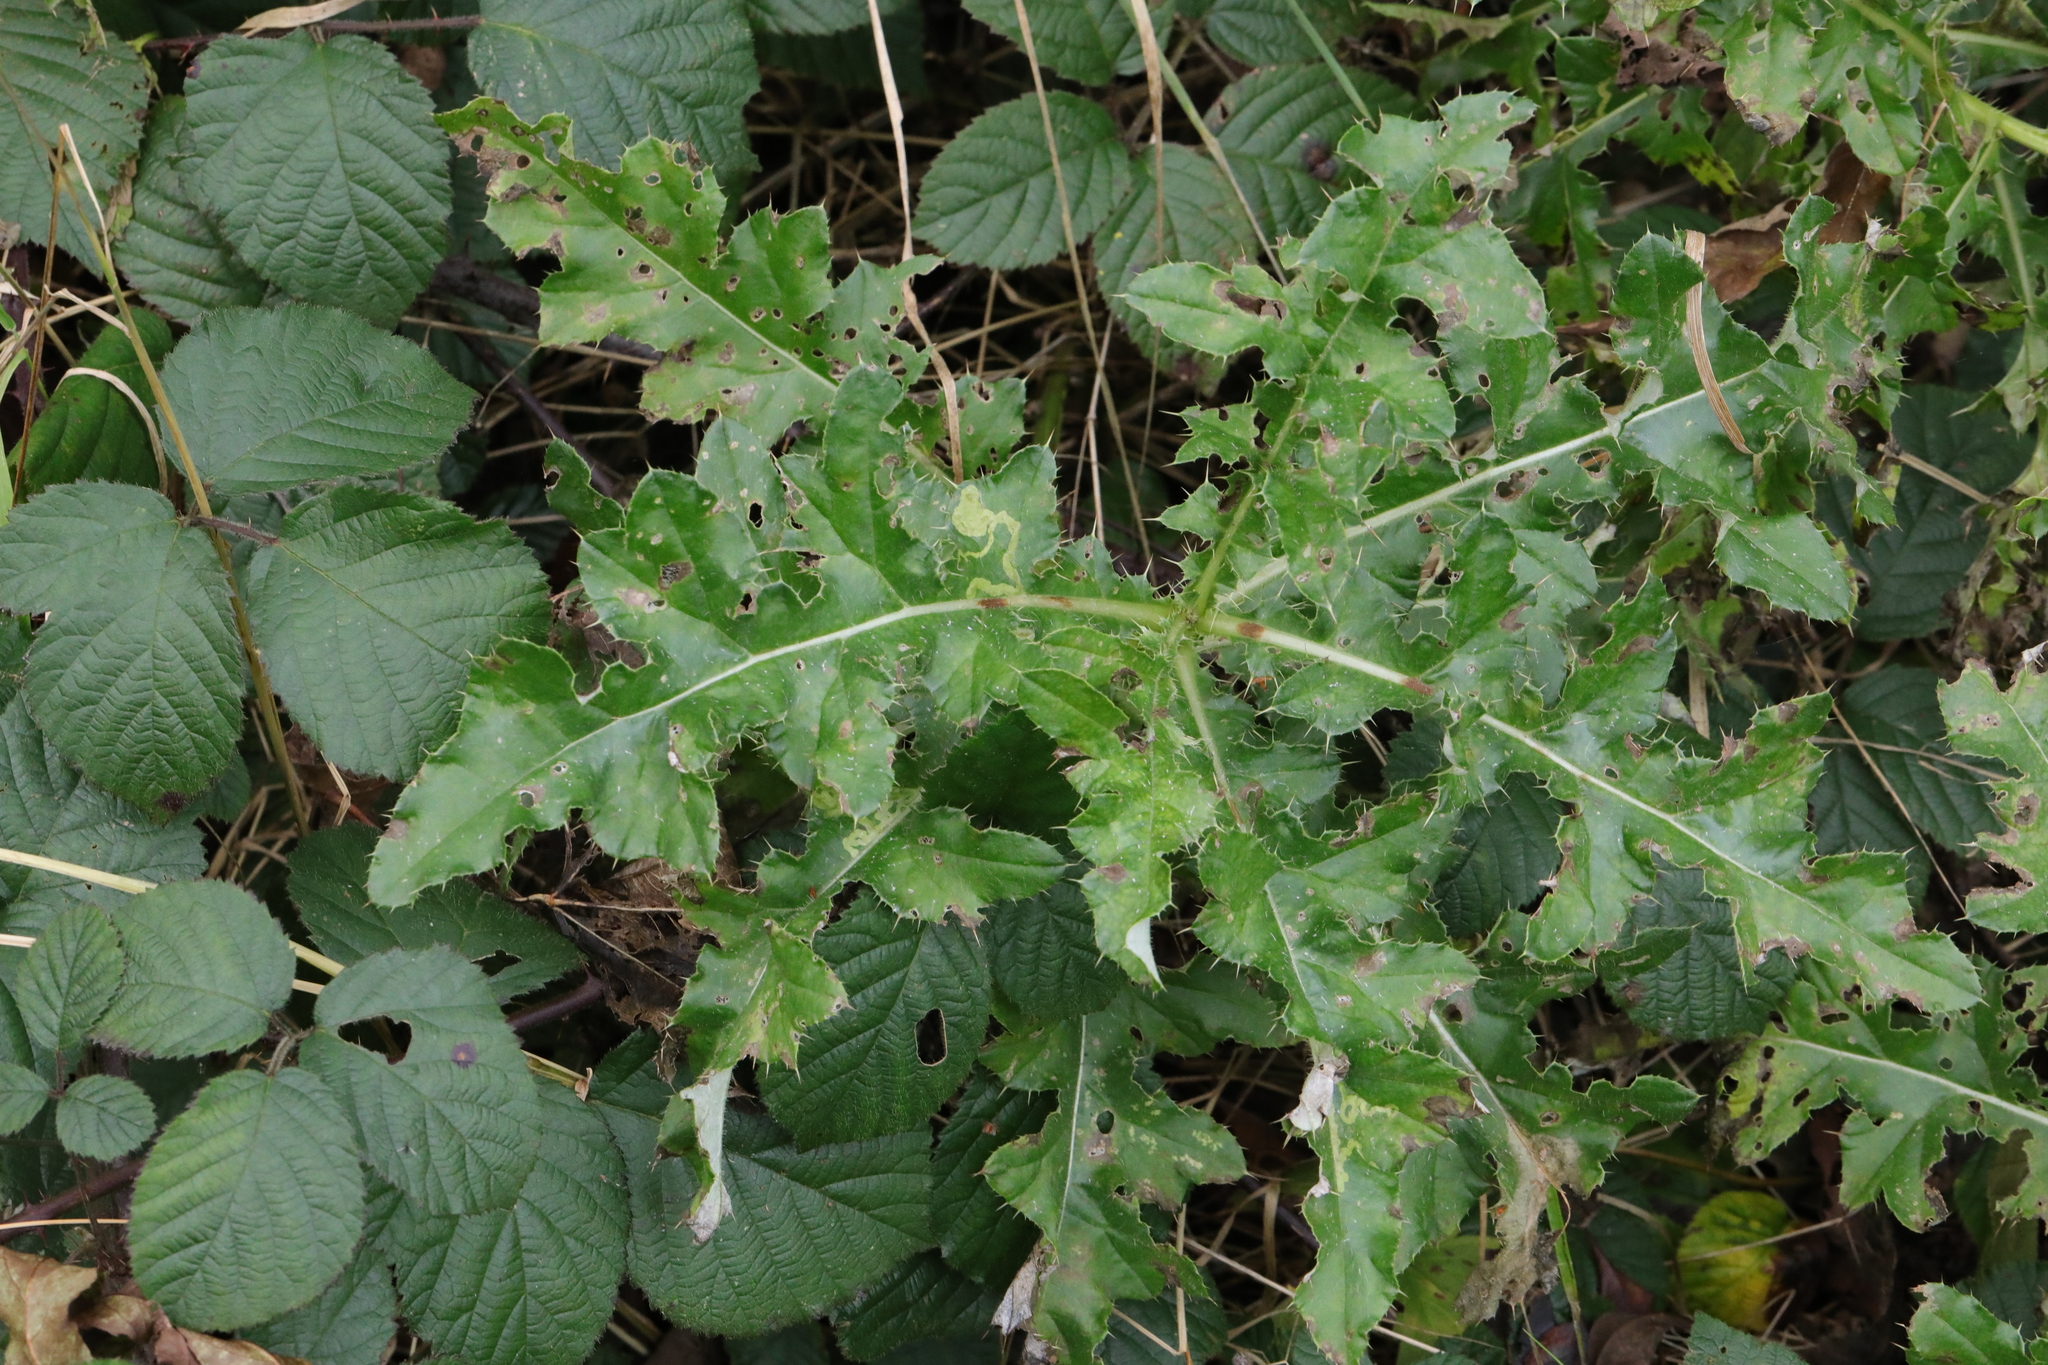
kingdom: Plantae
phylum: Tracheophyta
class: Magnoliopsida
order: Asterales
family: Asteraceae
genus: Cirsium
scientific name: Cirsium arvense
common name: Creeping thistle
